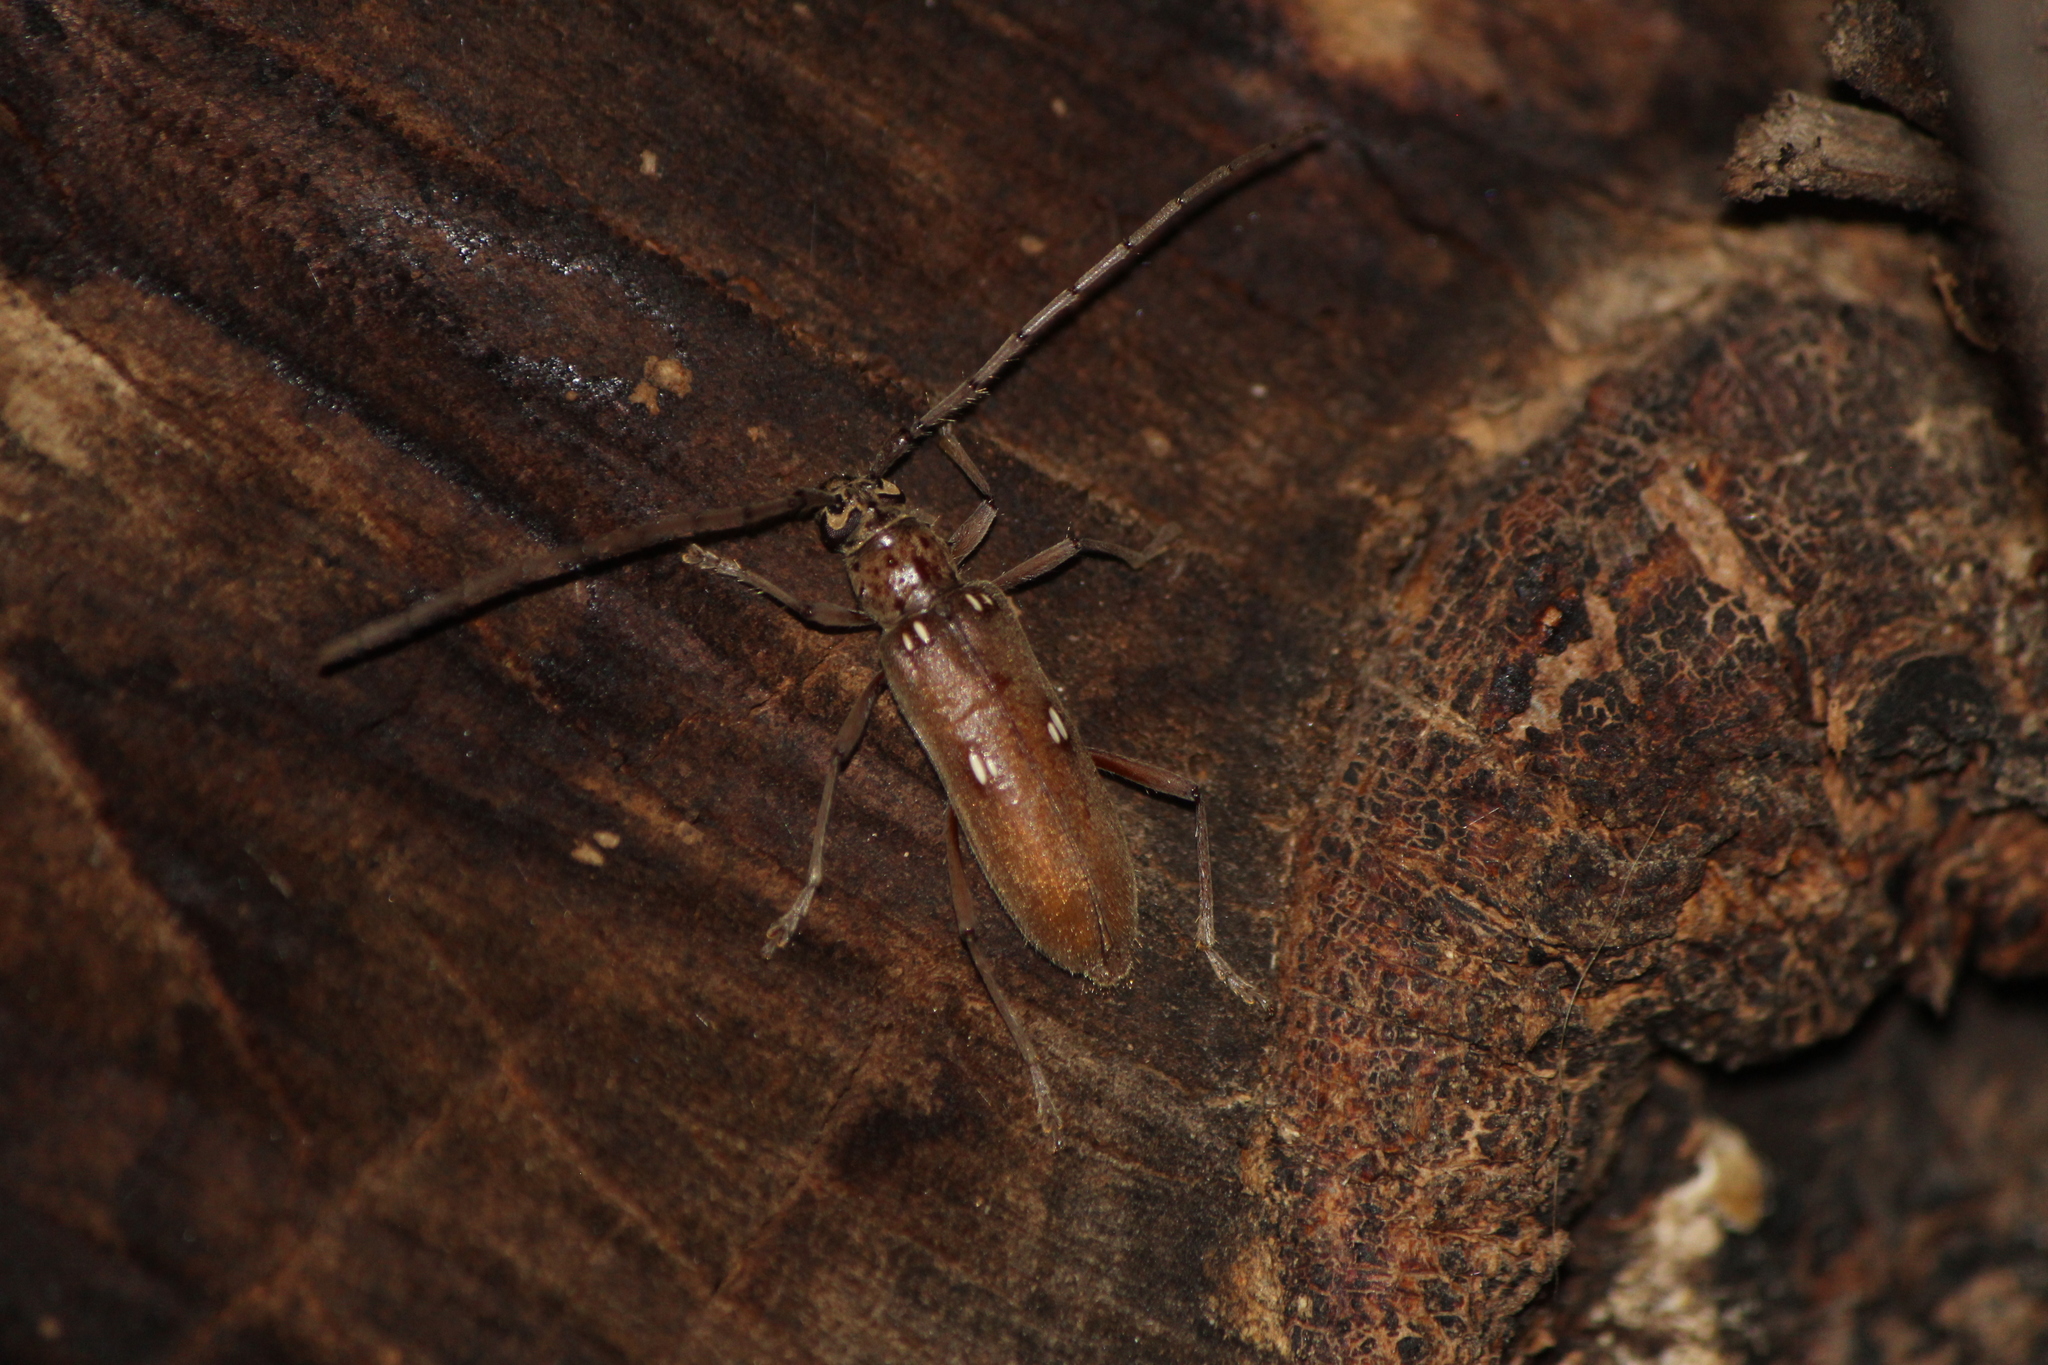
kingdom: Animalia
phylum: Arthropoda
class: Insecta
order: Coleoptera
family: Cerambycidae
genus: Susuacanga
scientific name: Susuacanga patruelis
